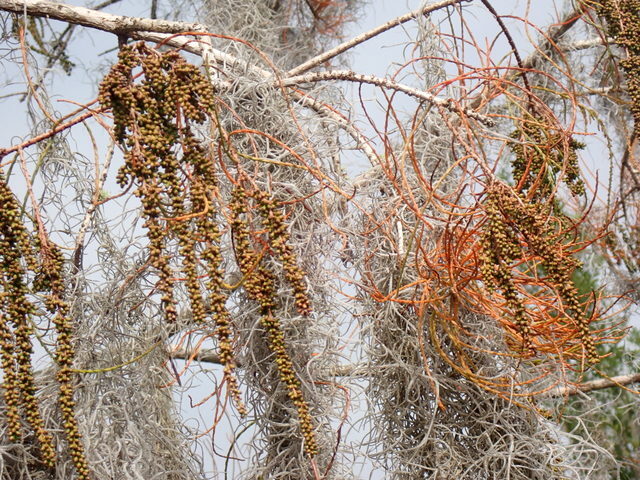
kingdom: Plantae
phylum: Tracheophyta
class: Pinopsida
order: Pinales
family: Cupressaceae
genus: Taxodium
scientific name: Taxodium distichum
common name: Bald cypress
